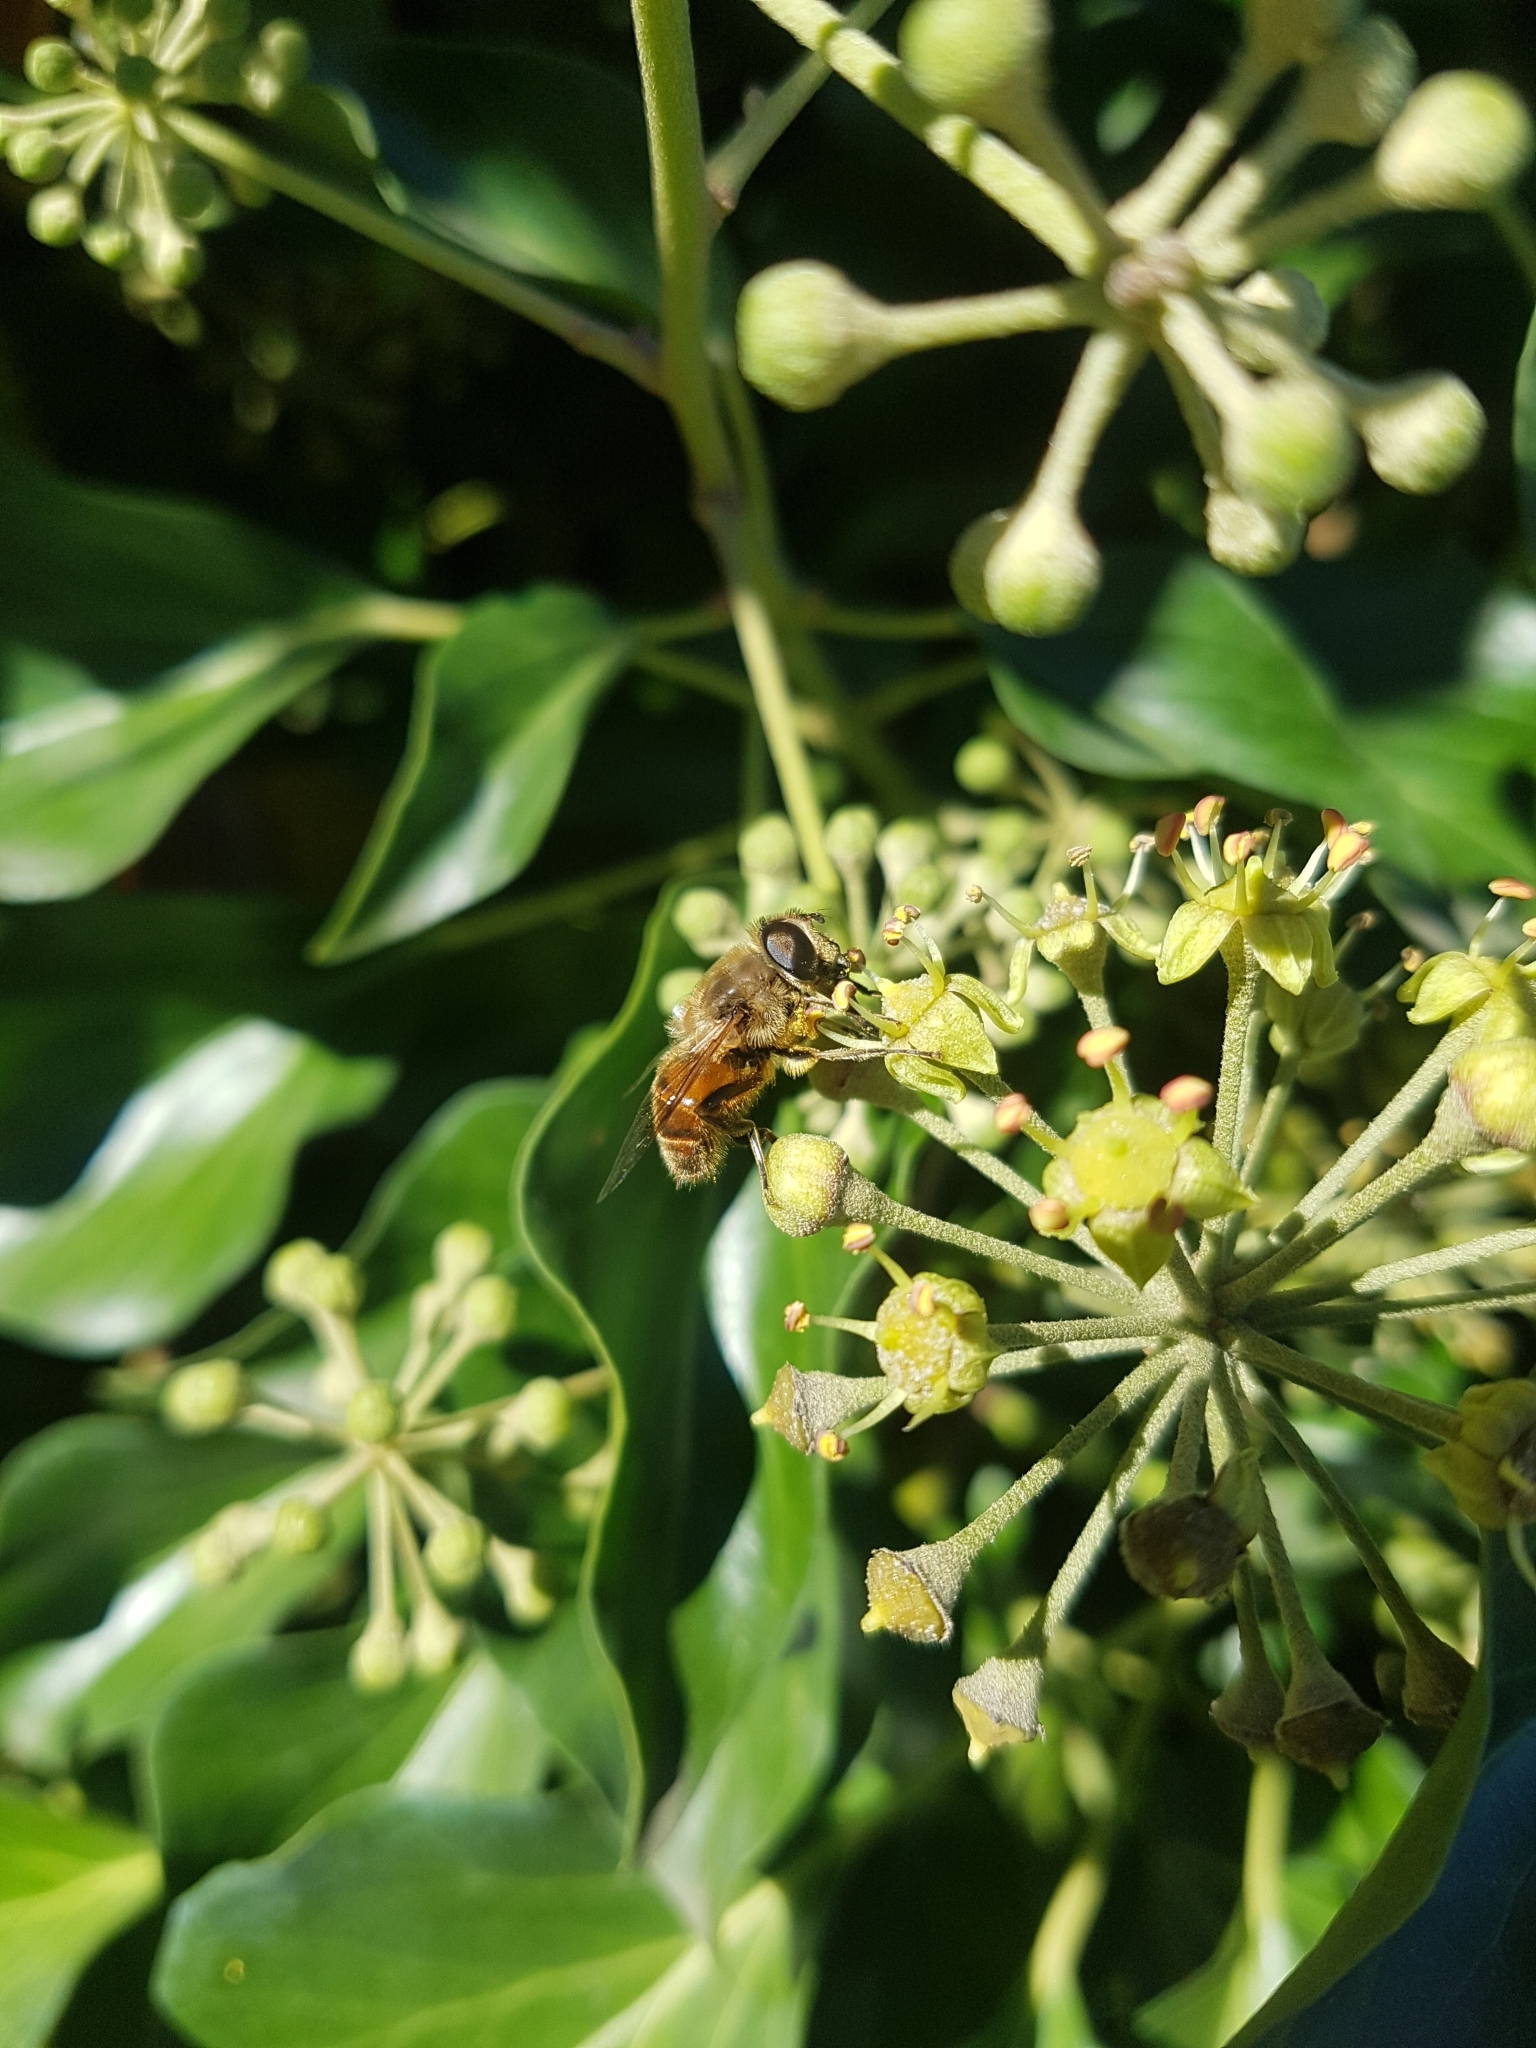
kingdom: Animalia
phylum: Arthropoda
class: Insecta
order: Diptera
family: Syrphidae
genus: Eristalis
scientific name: Eristalis tenax
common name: Drone fly
